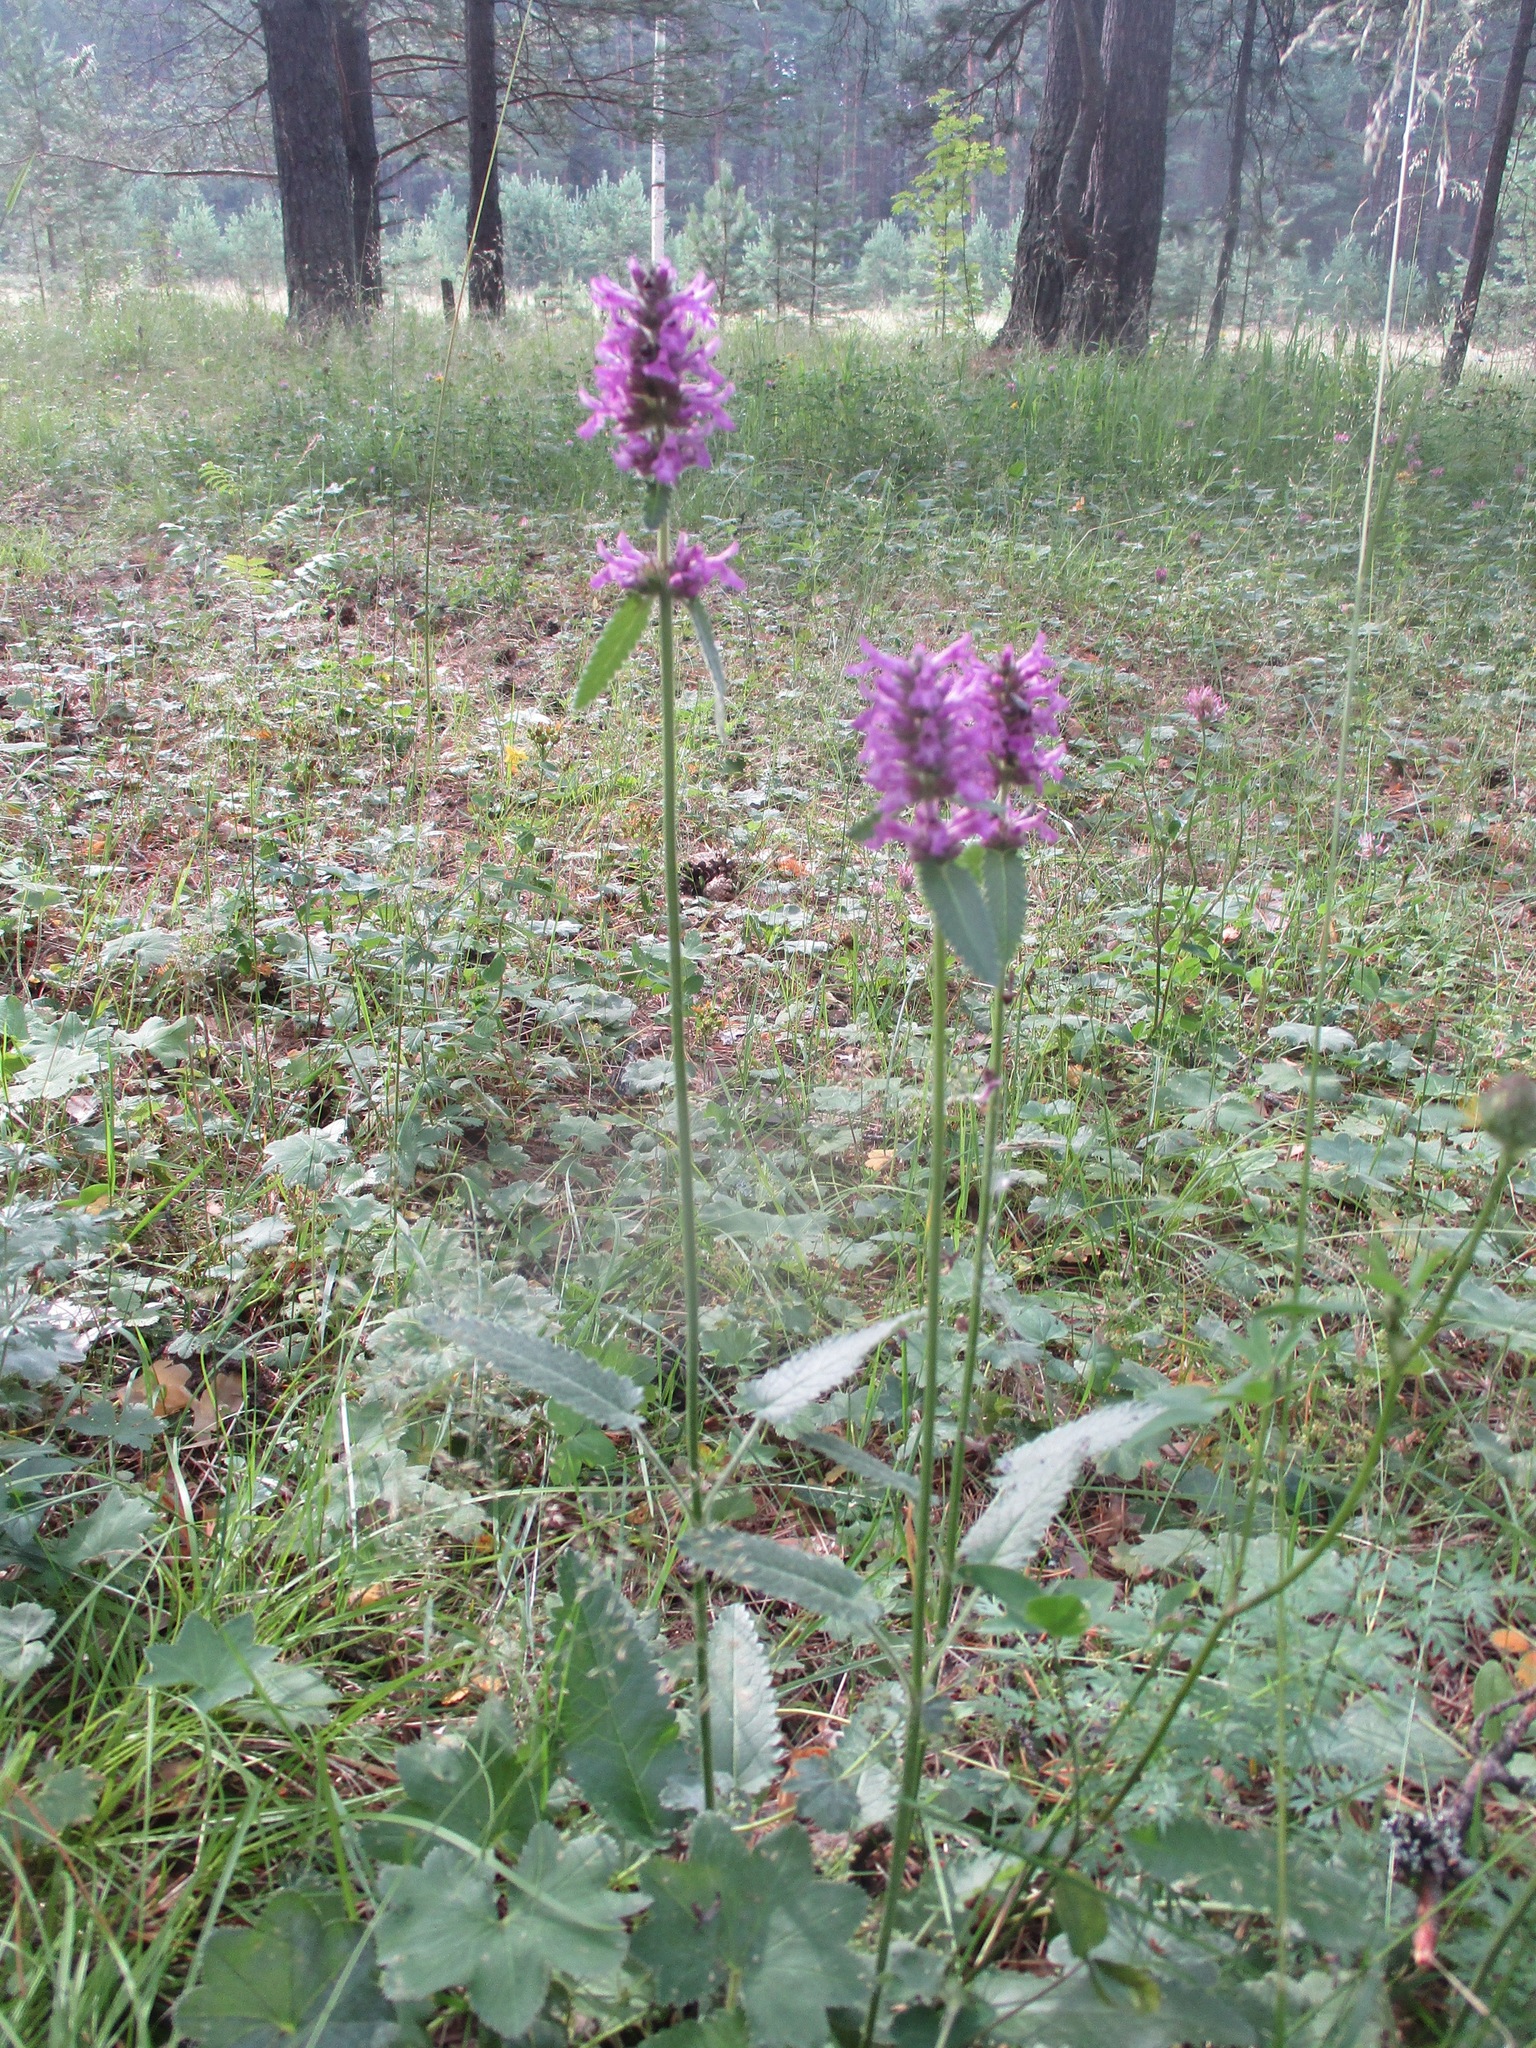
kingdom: Plantae
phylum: Tracheophyta
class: Magnoliopsida
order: Lamiales
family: Lamiaceae
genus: Betonica
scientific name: Betonica officinalis
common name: Bishop's-wort
